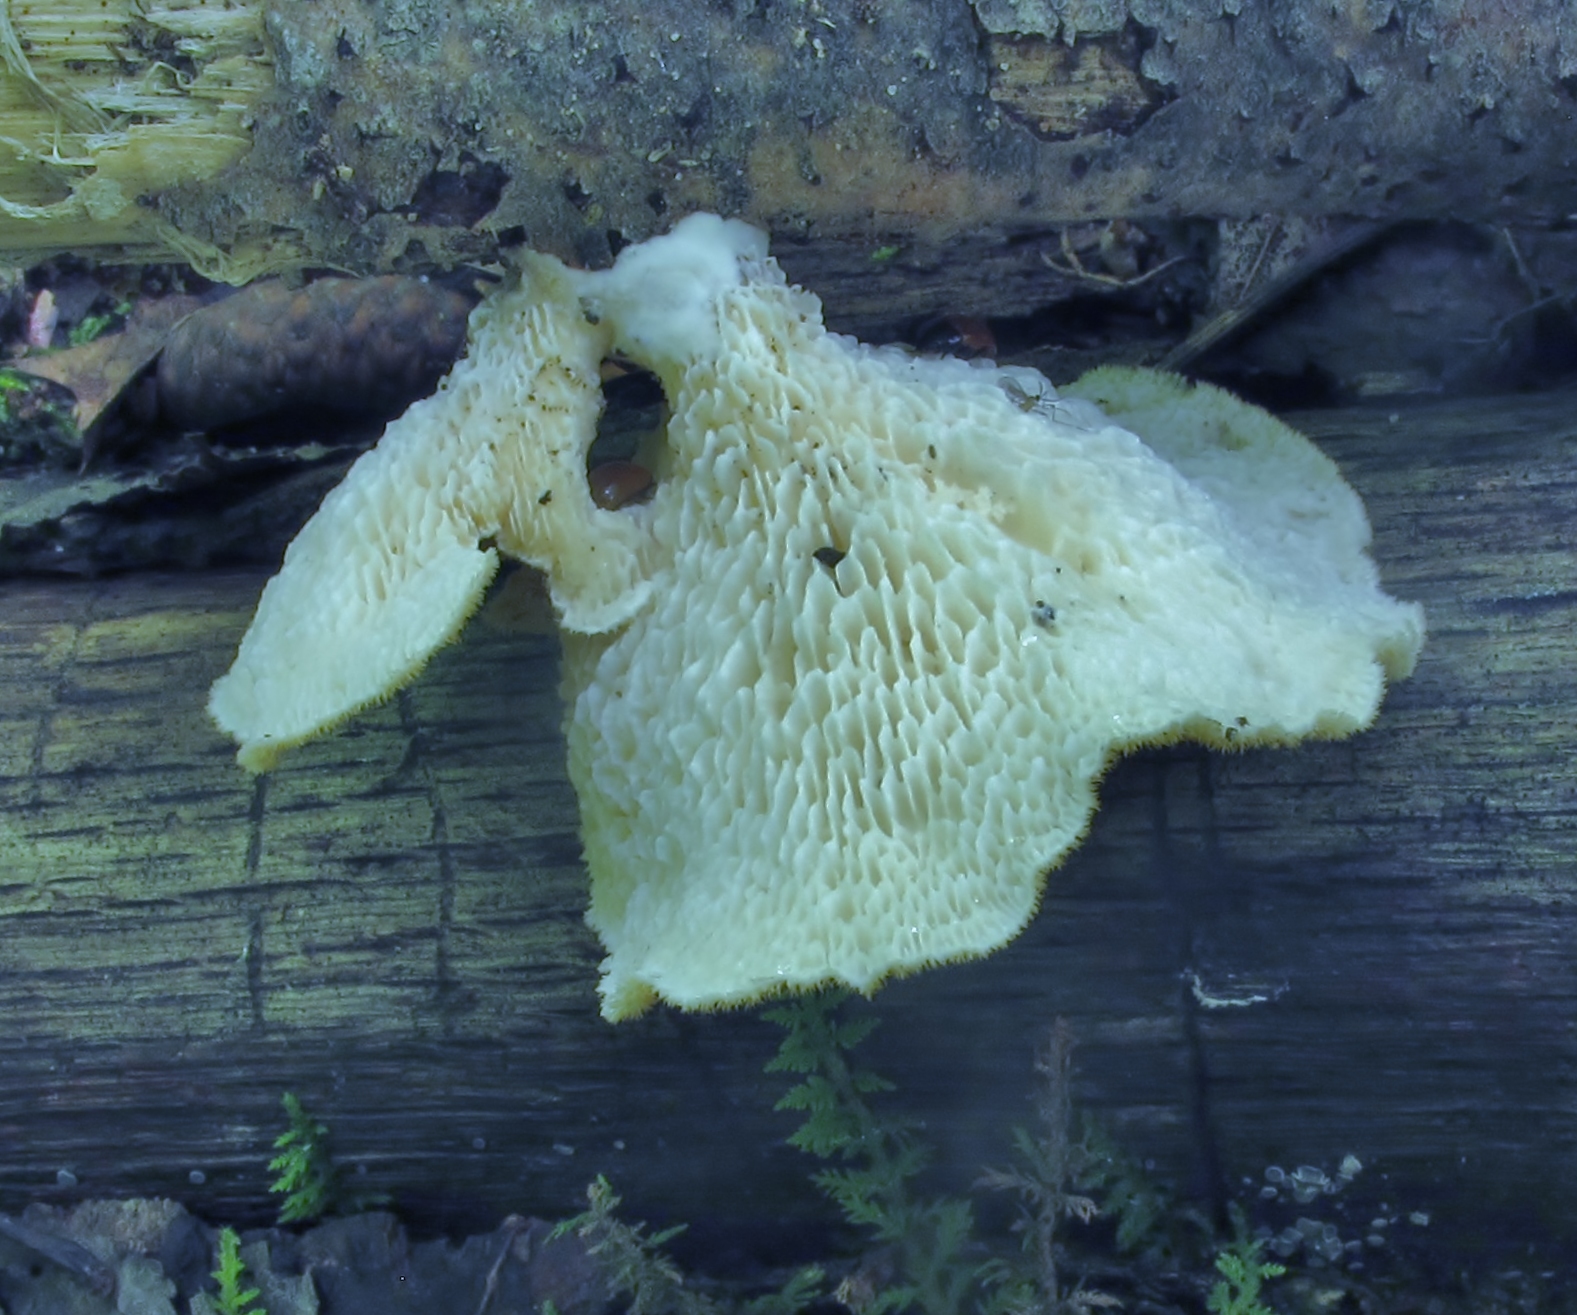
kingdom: Fungi
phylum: Basidiomycota
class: Agaricomycetes
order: Polyporales
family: Polyporaceae
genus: Neofavolus
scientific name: Neofavolus alveolaris
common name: Hexagonal-pored polypore
